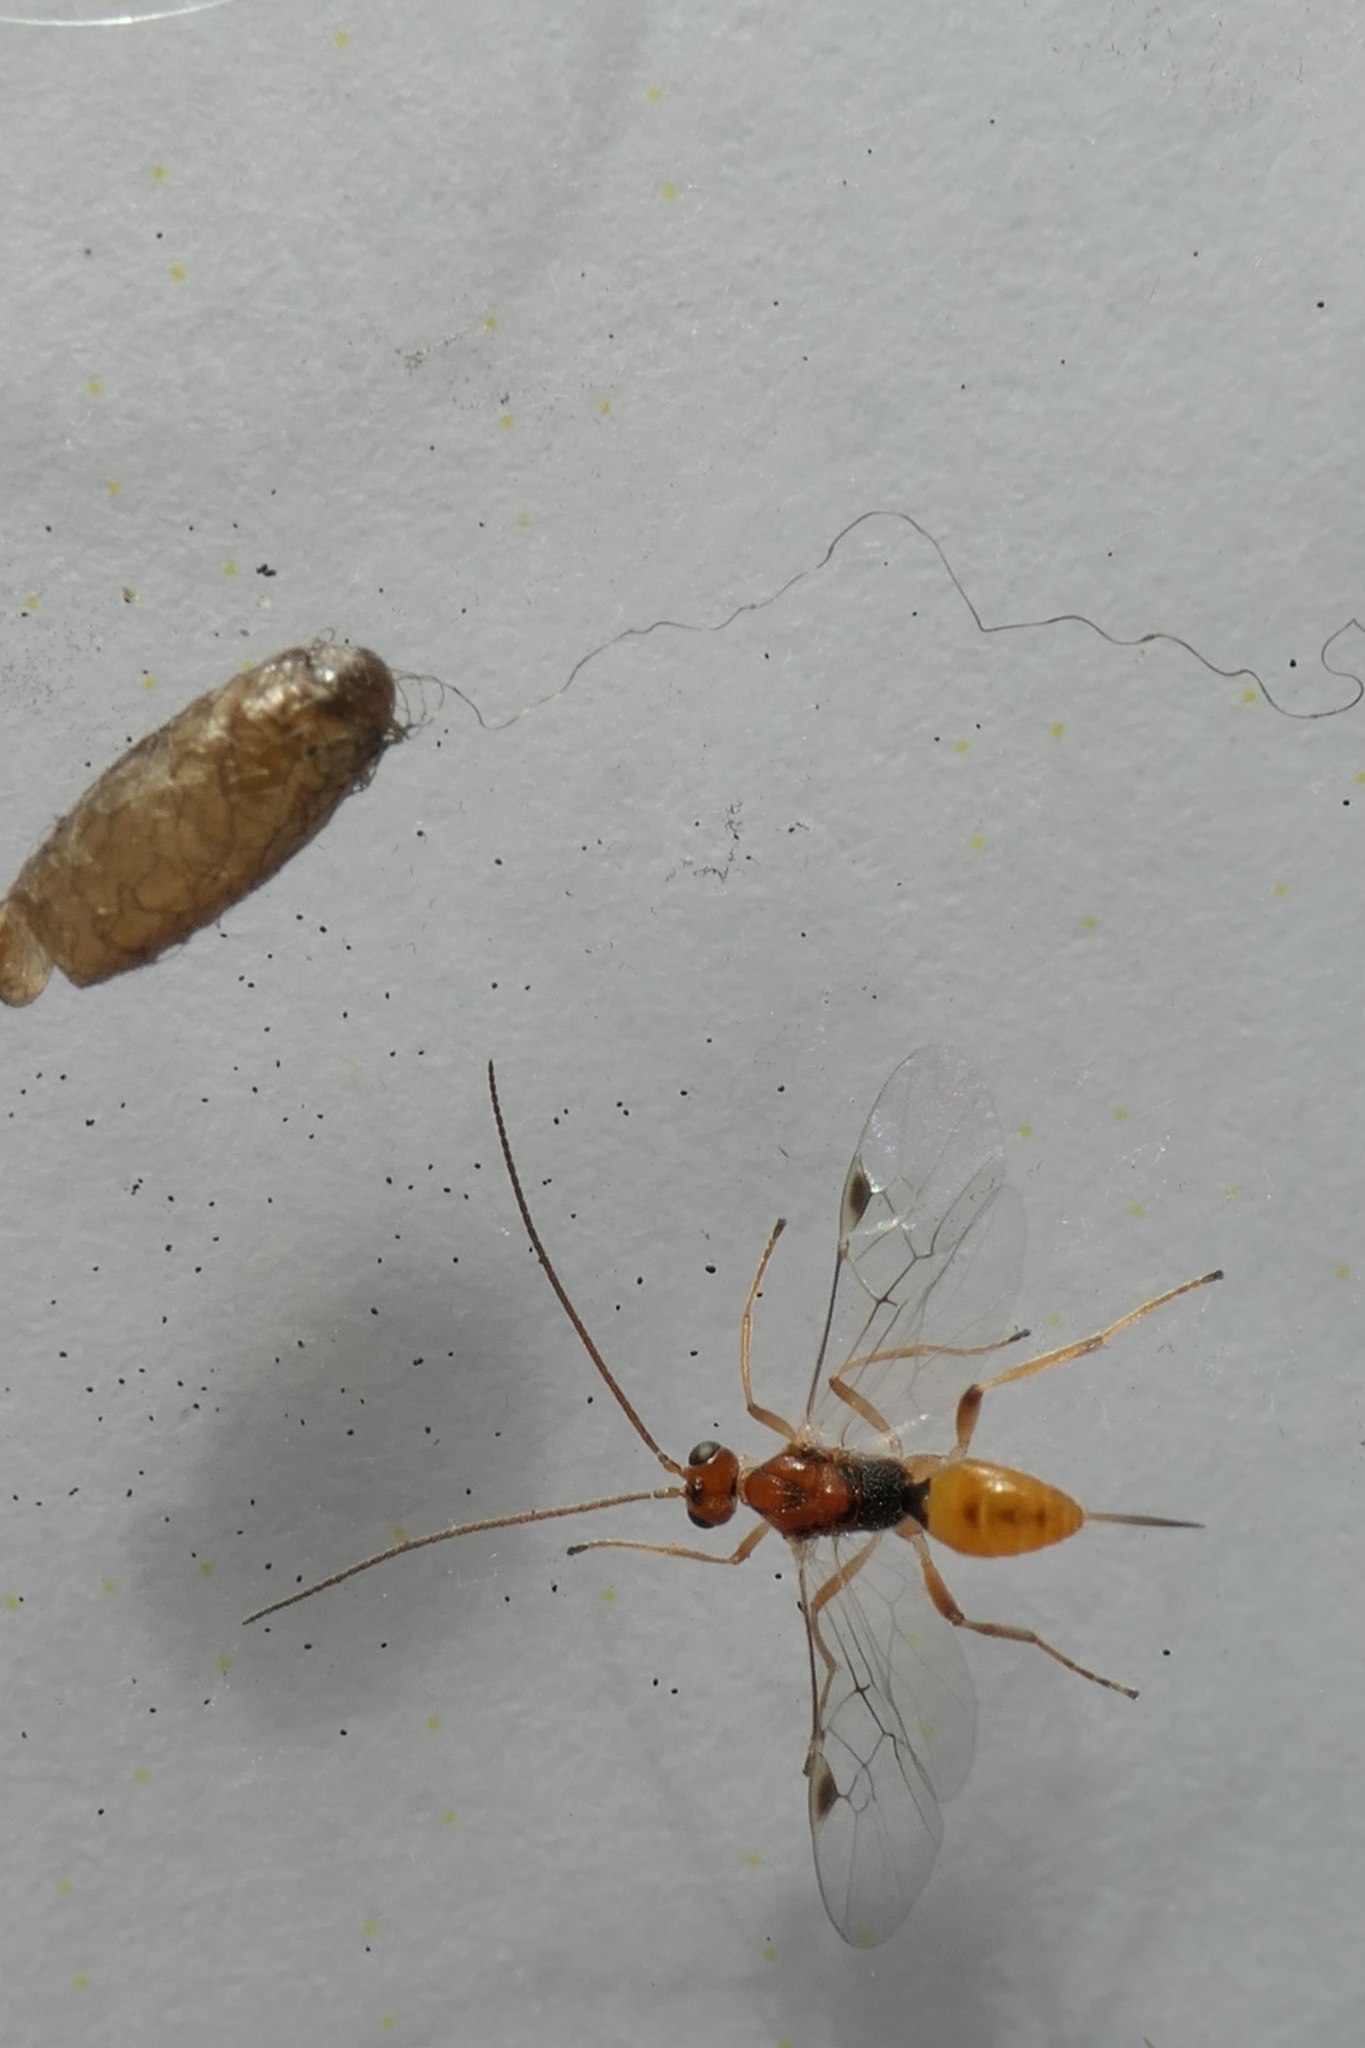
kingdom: Animalia
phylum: Arthropoda
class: Insecta
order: Hymenoptera
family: Braconidae
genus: Meteorus
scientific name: Meteorus pulchricornis
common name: Braconid wasp
